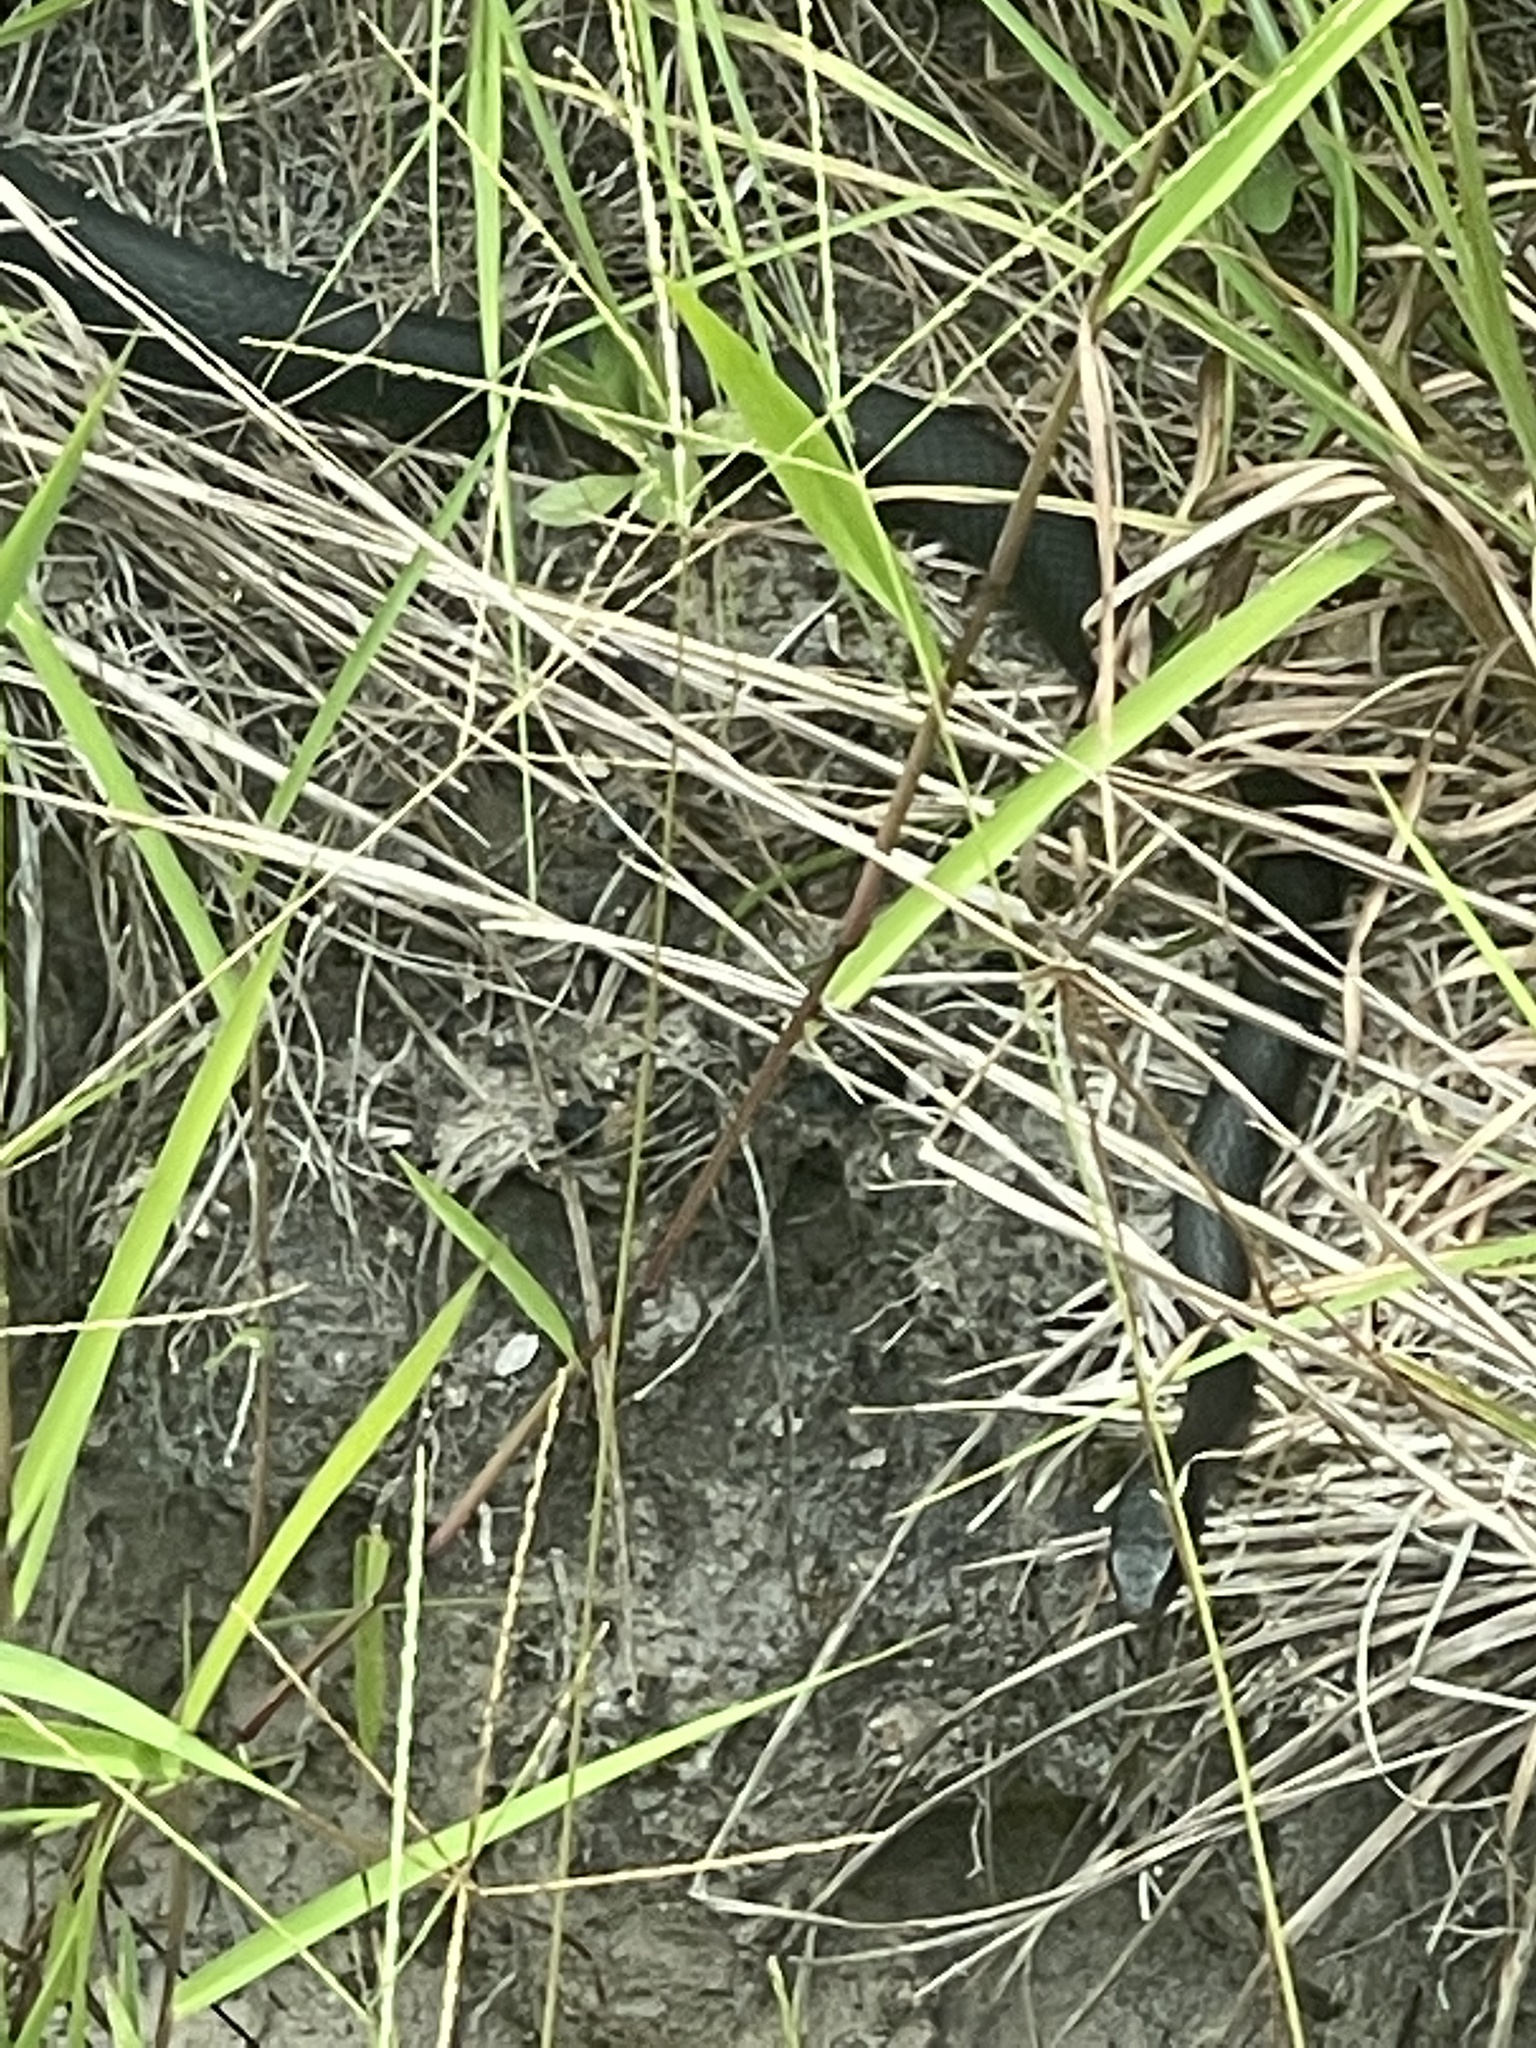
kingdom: Animalia
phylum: Chordata
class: Squamata
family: Colubridae
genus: Coluber
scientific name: Coluber constrictor
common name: Eastern racer
